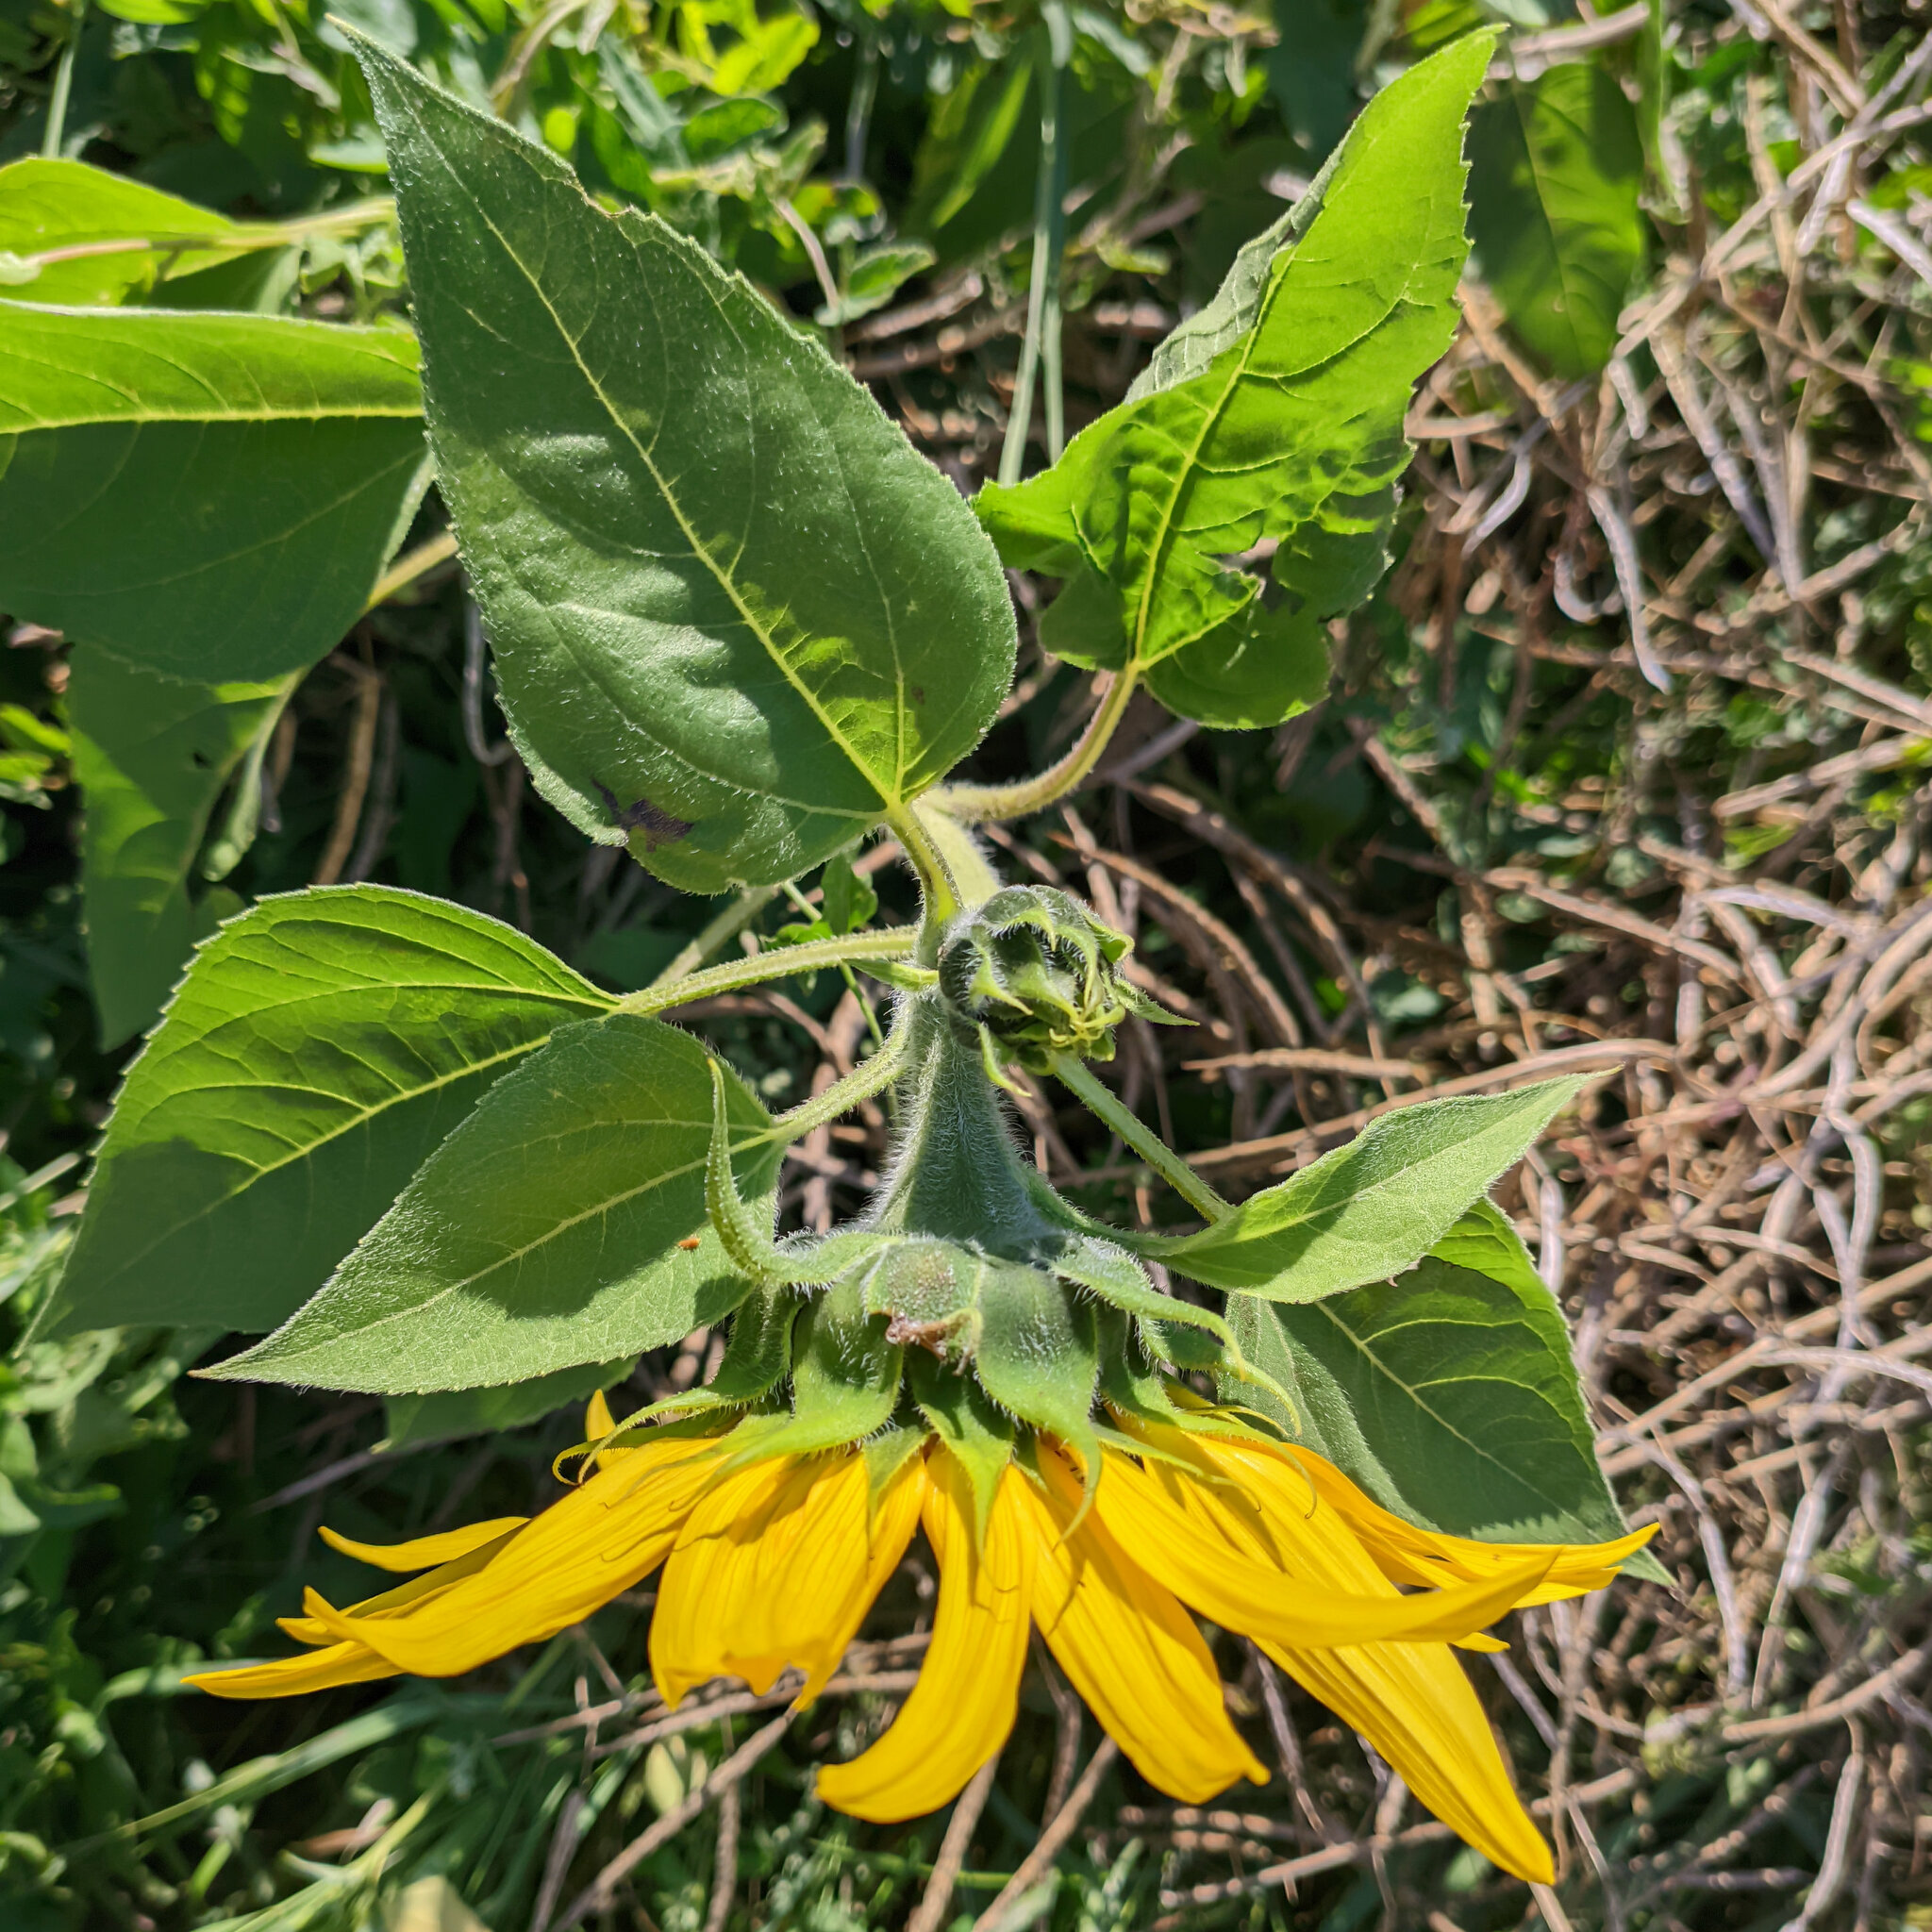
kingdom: Plantae
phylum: Tracheophyta
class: Magnoliopsida
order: Asterales
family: Asteraceae
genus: Helianthus
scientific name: Helianthus annuus
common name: Sunflower
